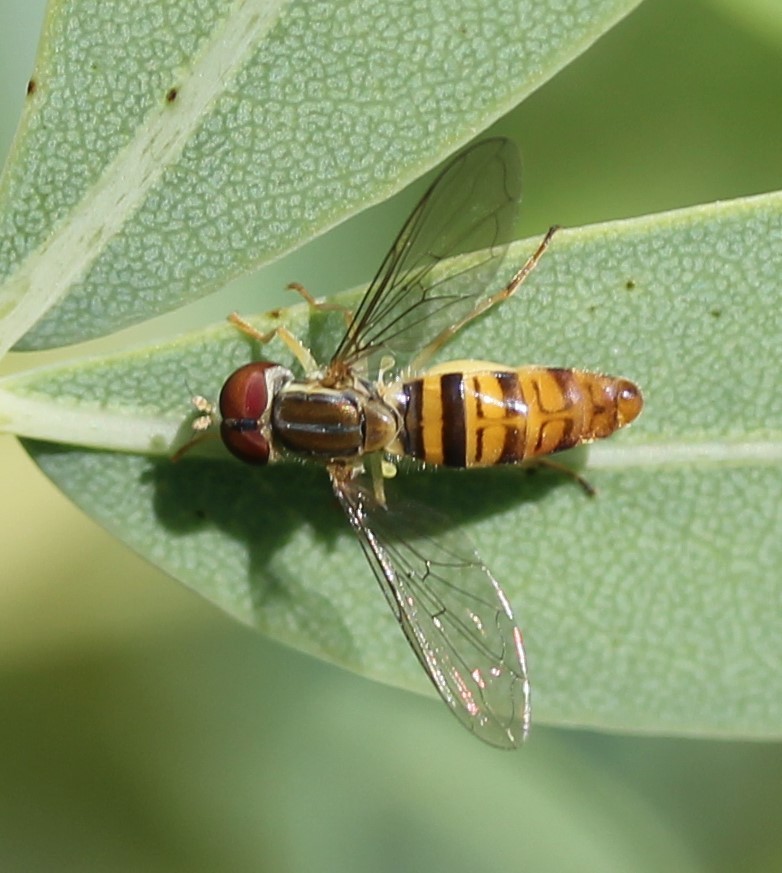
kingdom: Animalia
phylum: Arthropoda
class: Insecta
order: Diptera
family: Syrphidae
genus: Toxomerus
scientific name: Toxomerus politus
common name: Maize calligrapher
